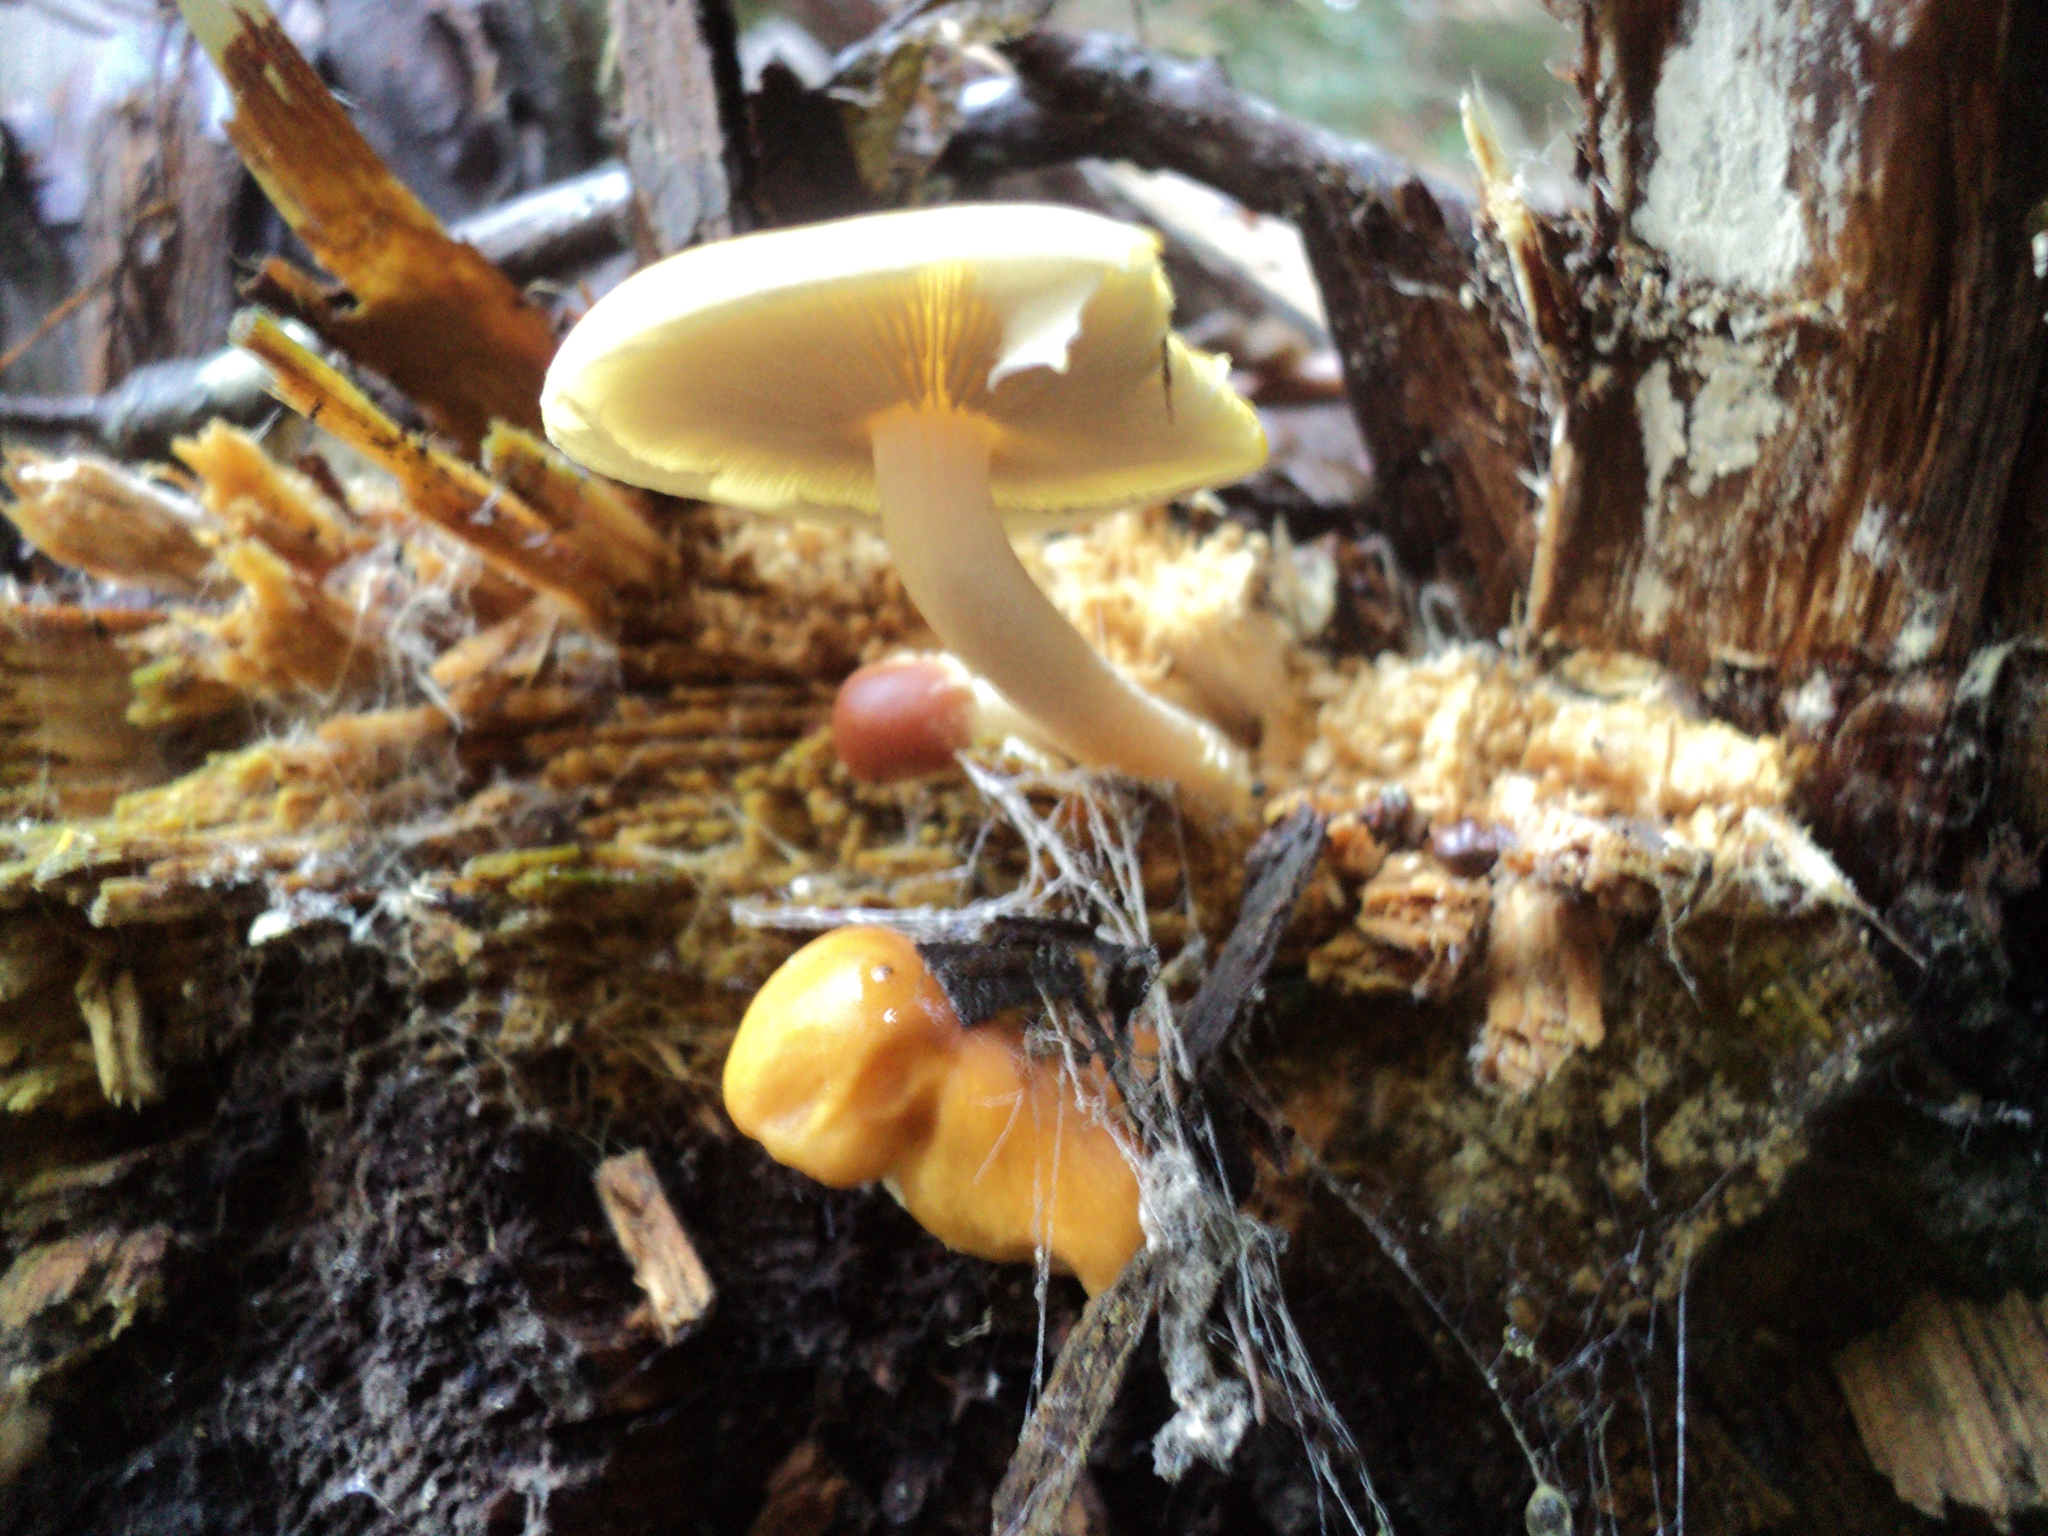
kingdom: Fungi
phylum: Basidiomycota
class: Agaricomycetes
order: Agaricales
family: Strophariaceae
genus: Hypholoma
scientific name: Hypholoma capnoides
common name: Conifer tuft
